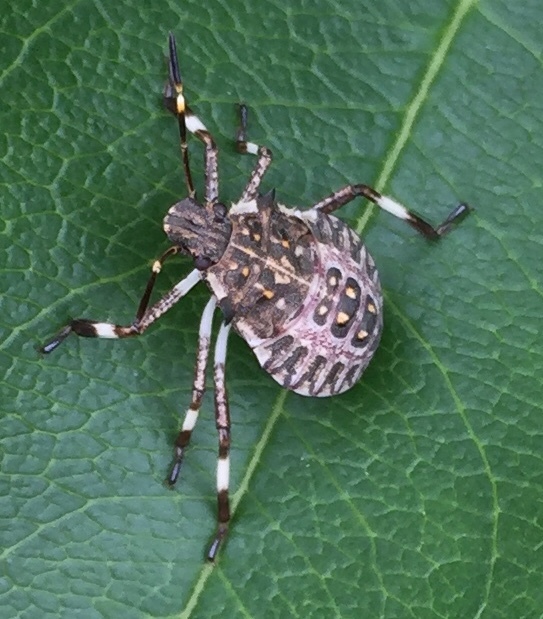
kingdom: Animalia
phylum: Arthropoda
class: Insecta
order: Hemiptera
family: Pentatomidae
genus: Halyomorpha
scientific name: Halyomorpha halys
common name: Brown marmorated stink bug
